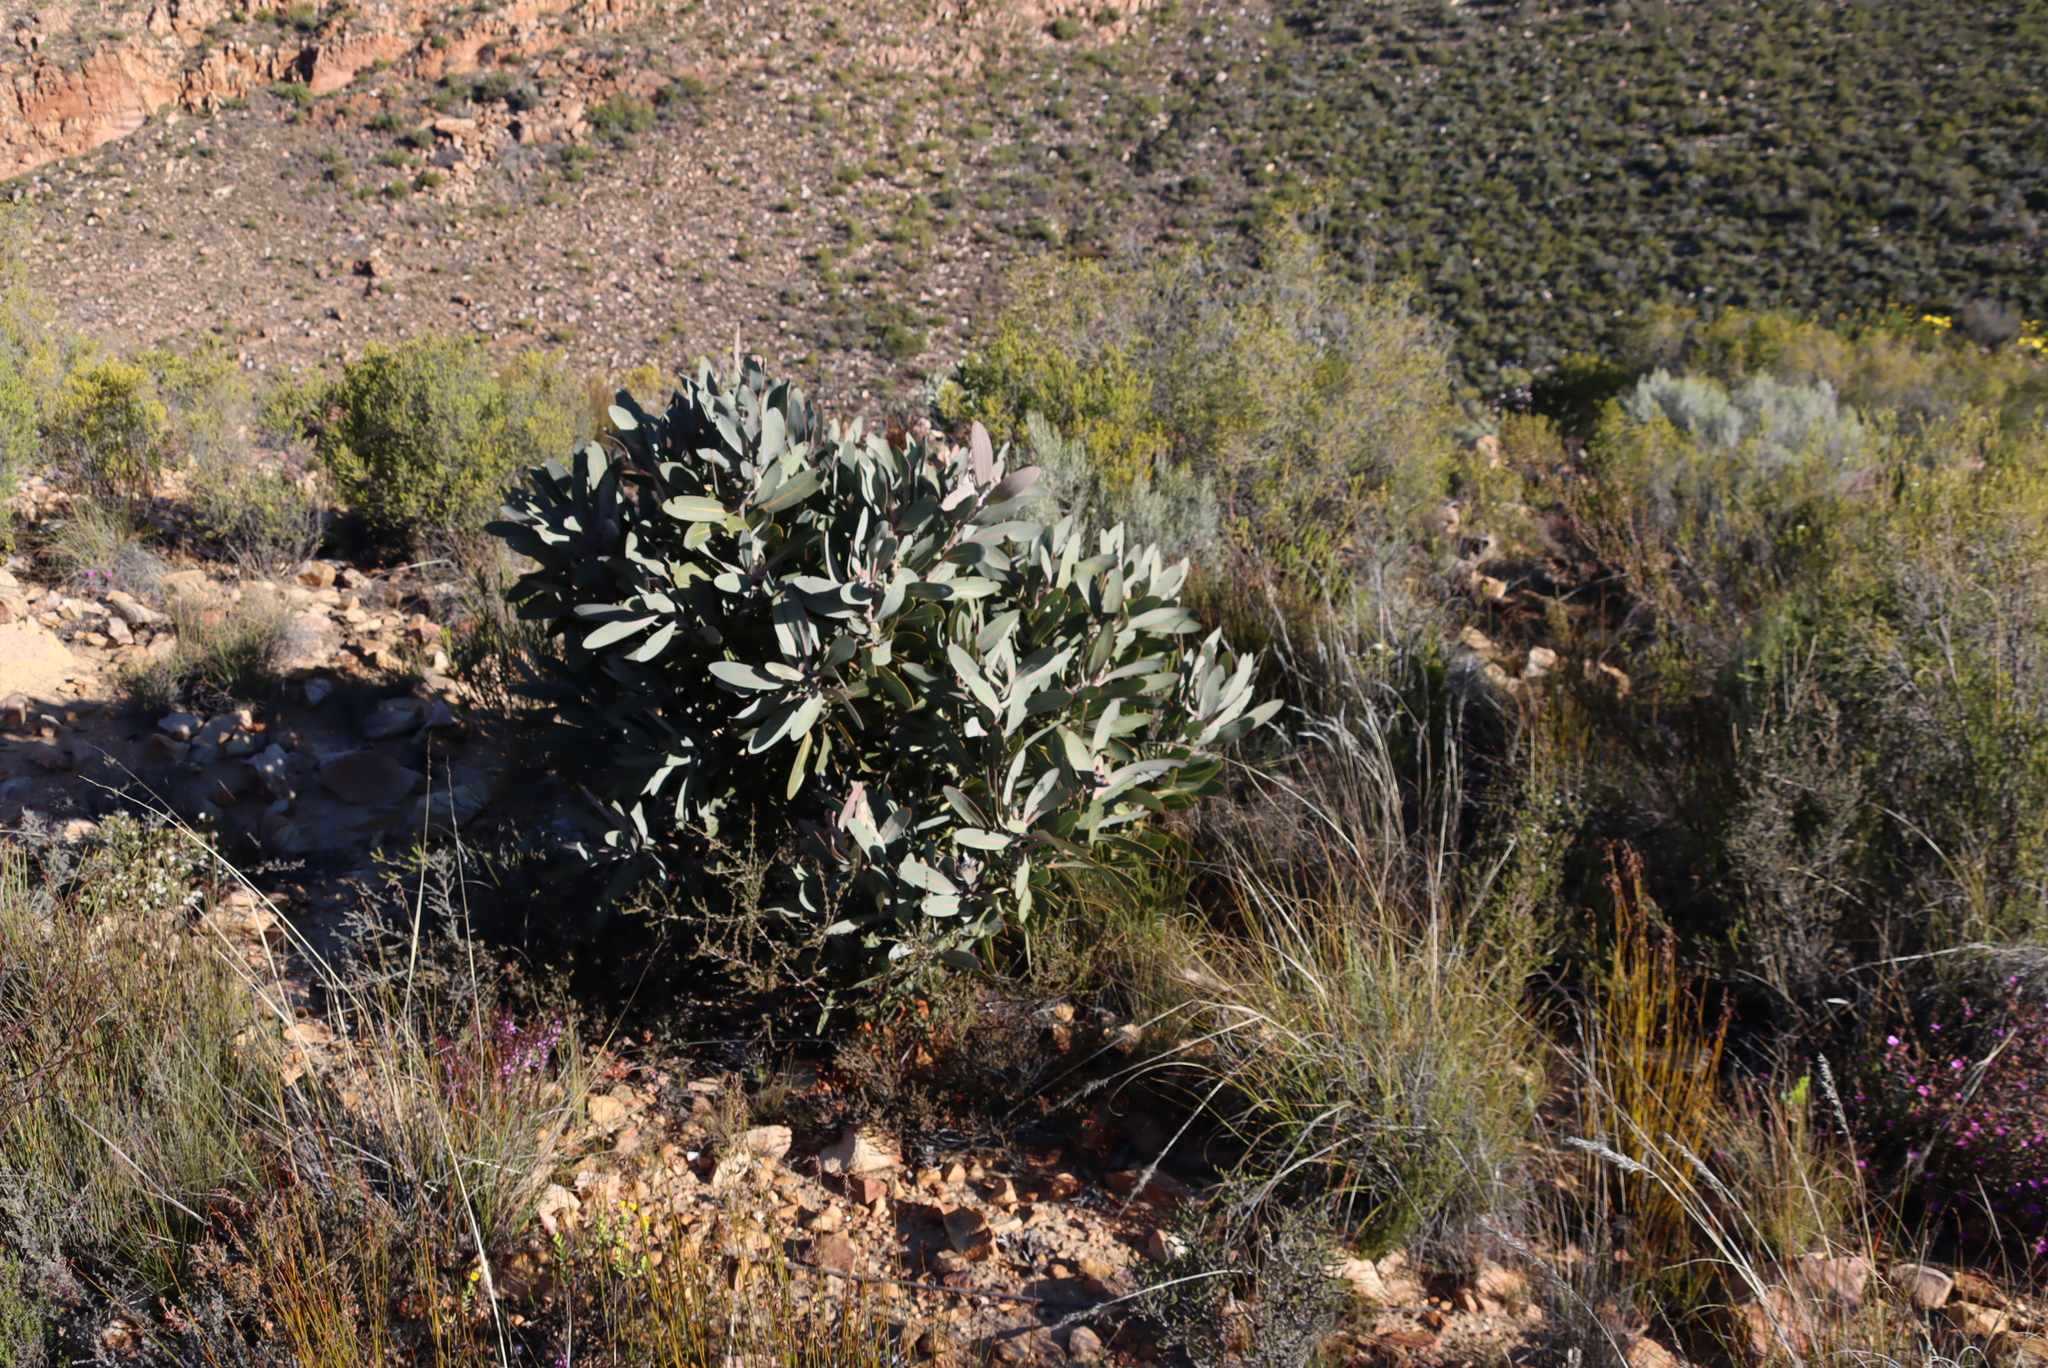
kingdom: Plantae
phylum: Tracheophyta
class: Magnoliopsida
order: Proteales
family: Proteaceae
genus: Protea
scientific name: Protea lorifolia
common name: Strap-leaved protea
